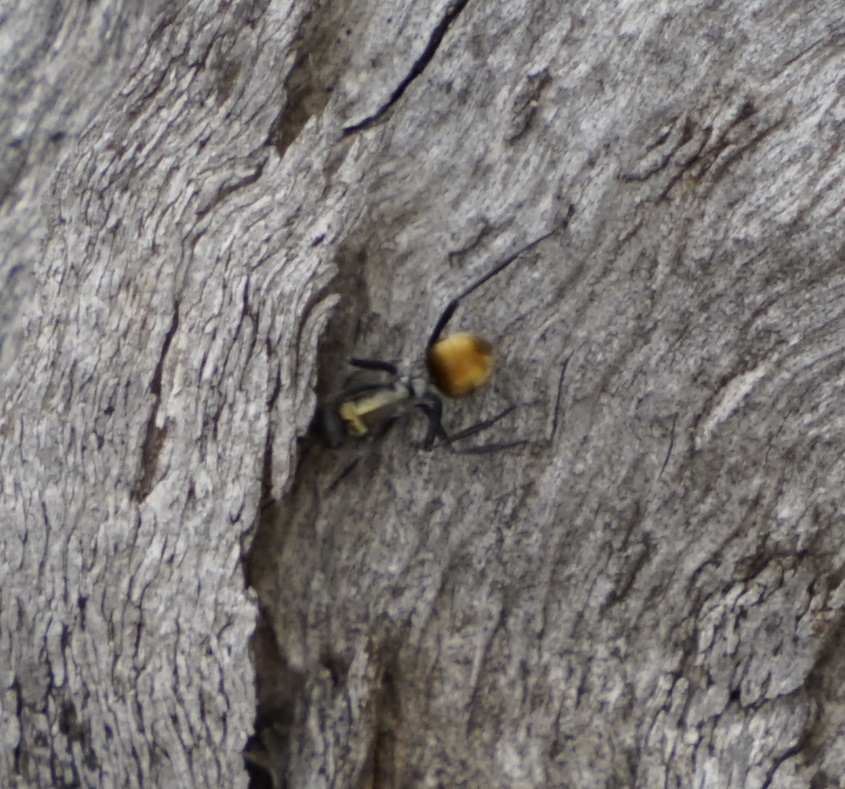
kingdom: Animalia
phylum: Arthropoda
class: Insecta
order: Hymenoptera
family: Formicidae
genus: Polyrhachis
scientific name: Polyrhachis ammon
